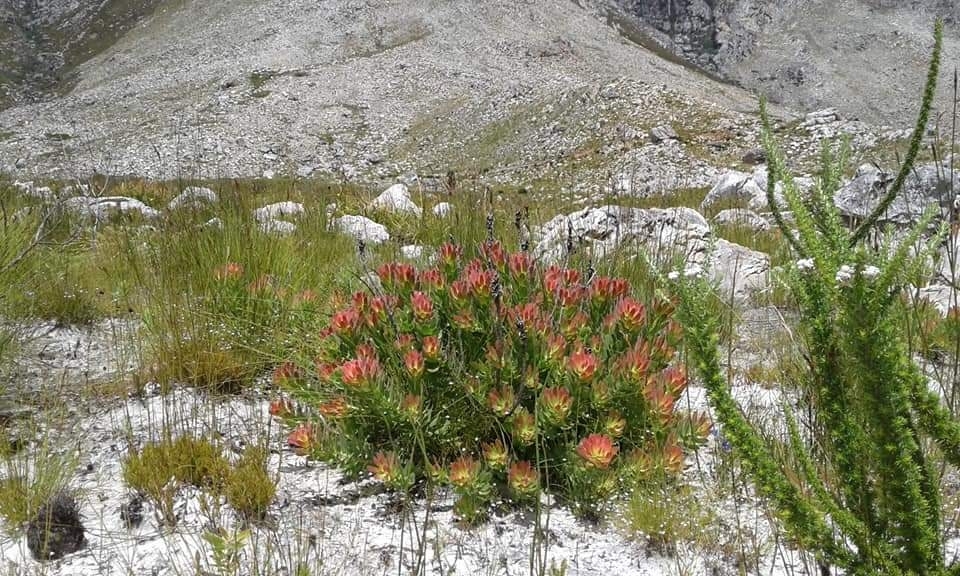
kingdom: Plantae
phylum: Tracheophyta
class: Magnoliopsida
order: Proteales
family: Proteaceae
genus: Mimetes
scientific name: Mimetes cucullatus
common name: Common pagoda
